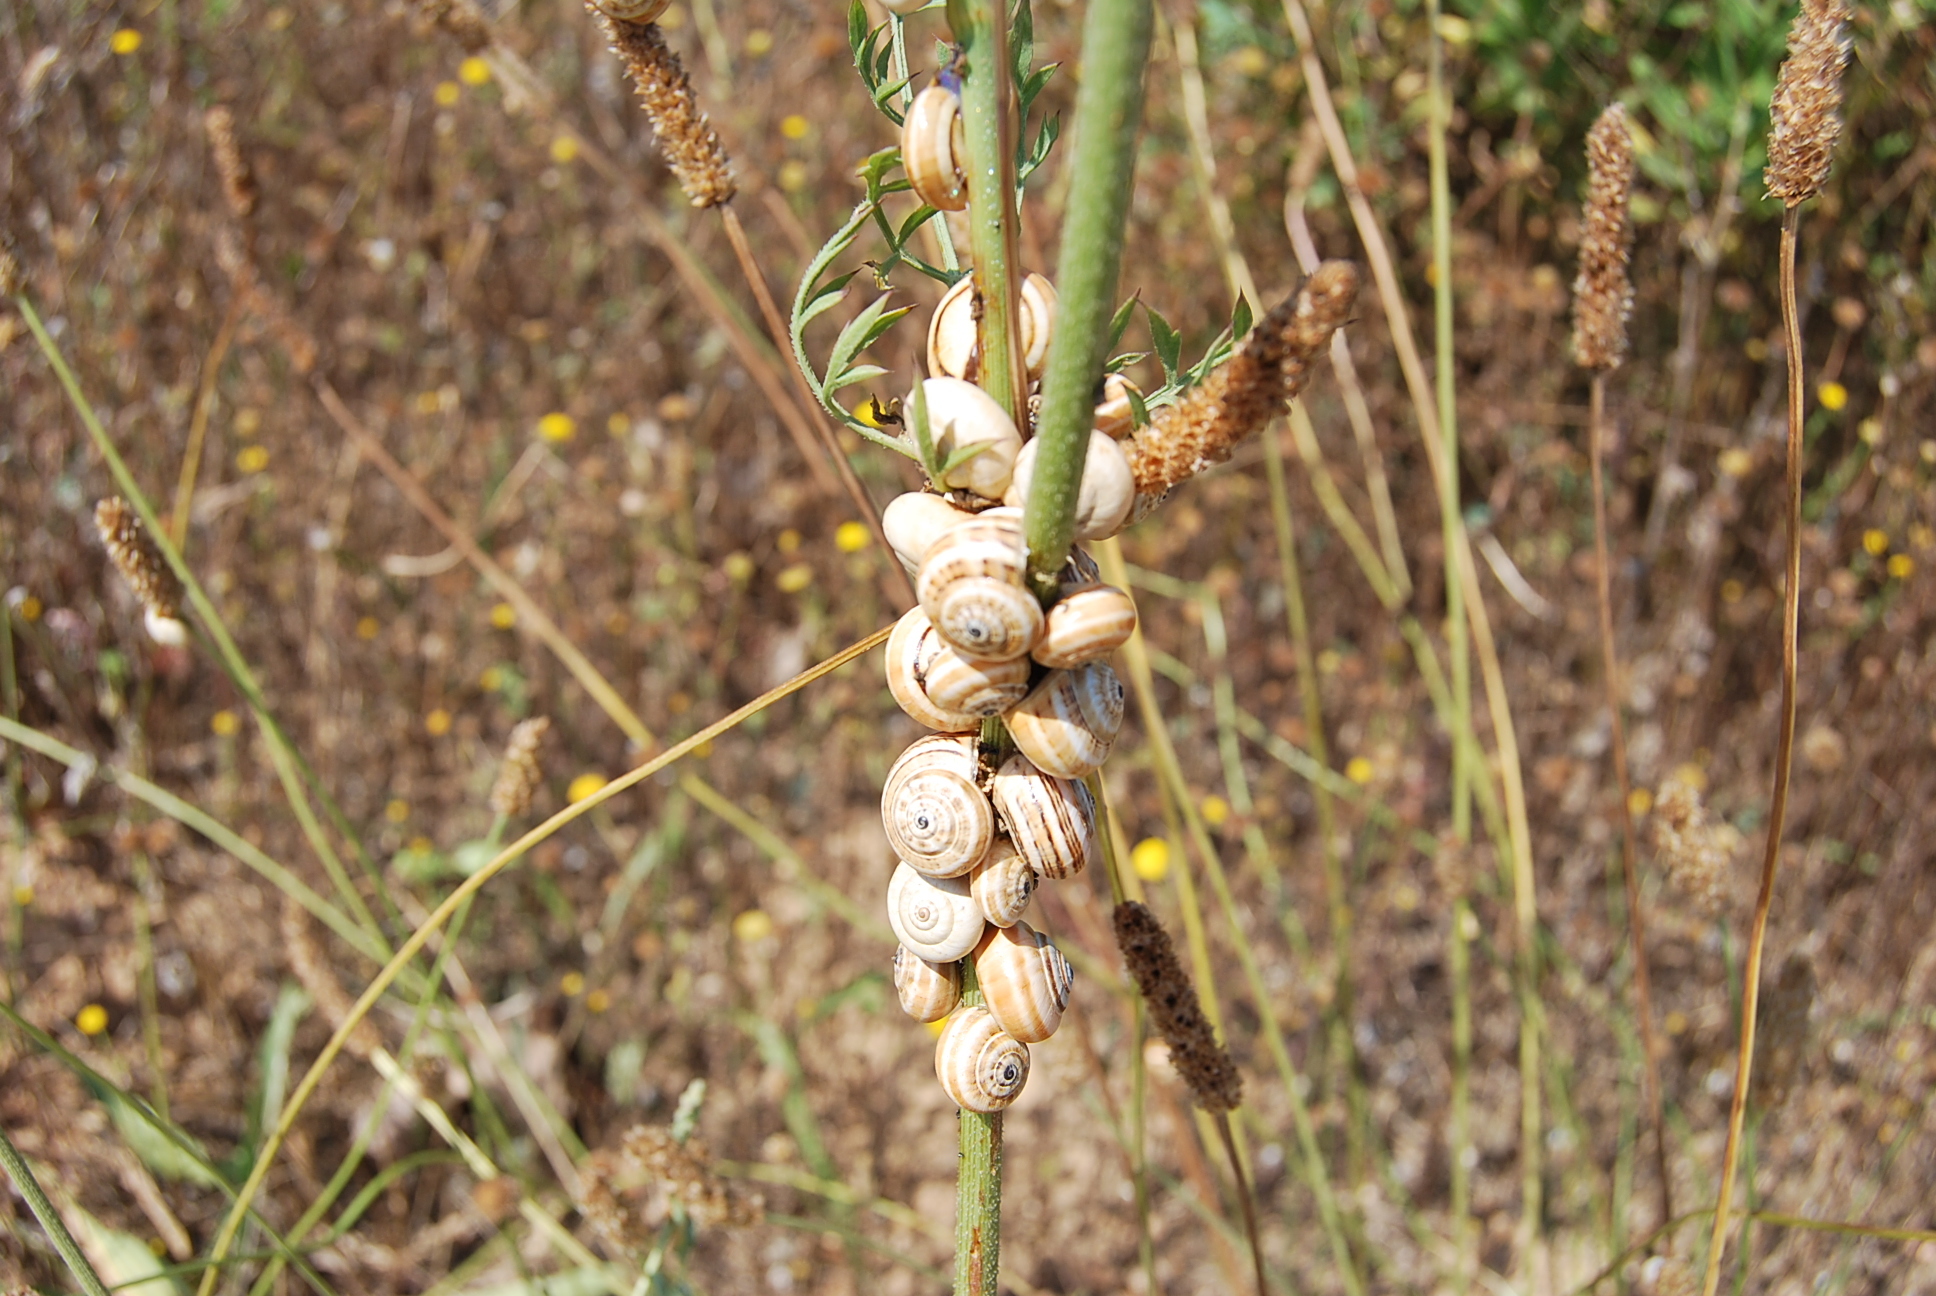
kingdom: Animalia
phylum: Mollusca
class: Gastropoda
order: Stylommatophora
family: Helicidae
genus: Theba
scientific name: Theba pisana
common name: White snail
